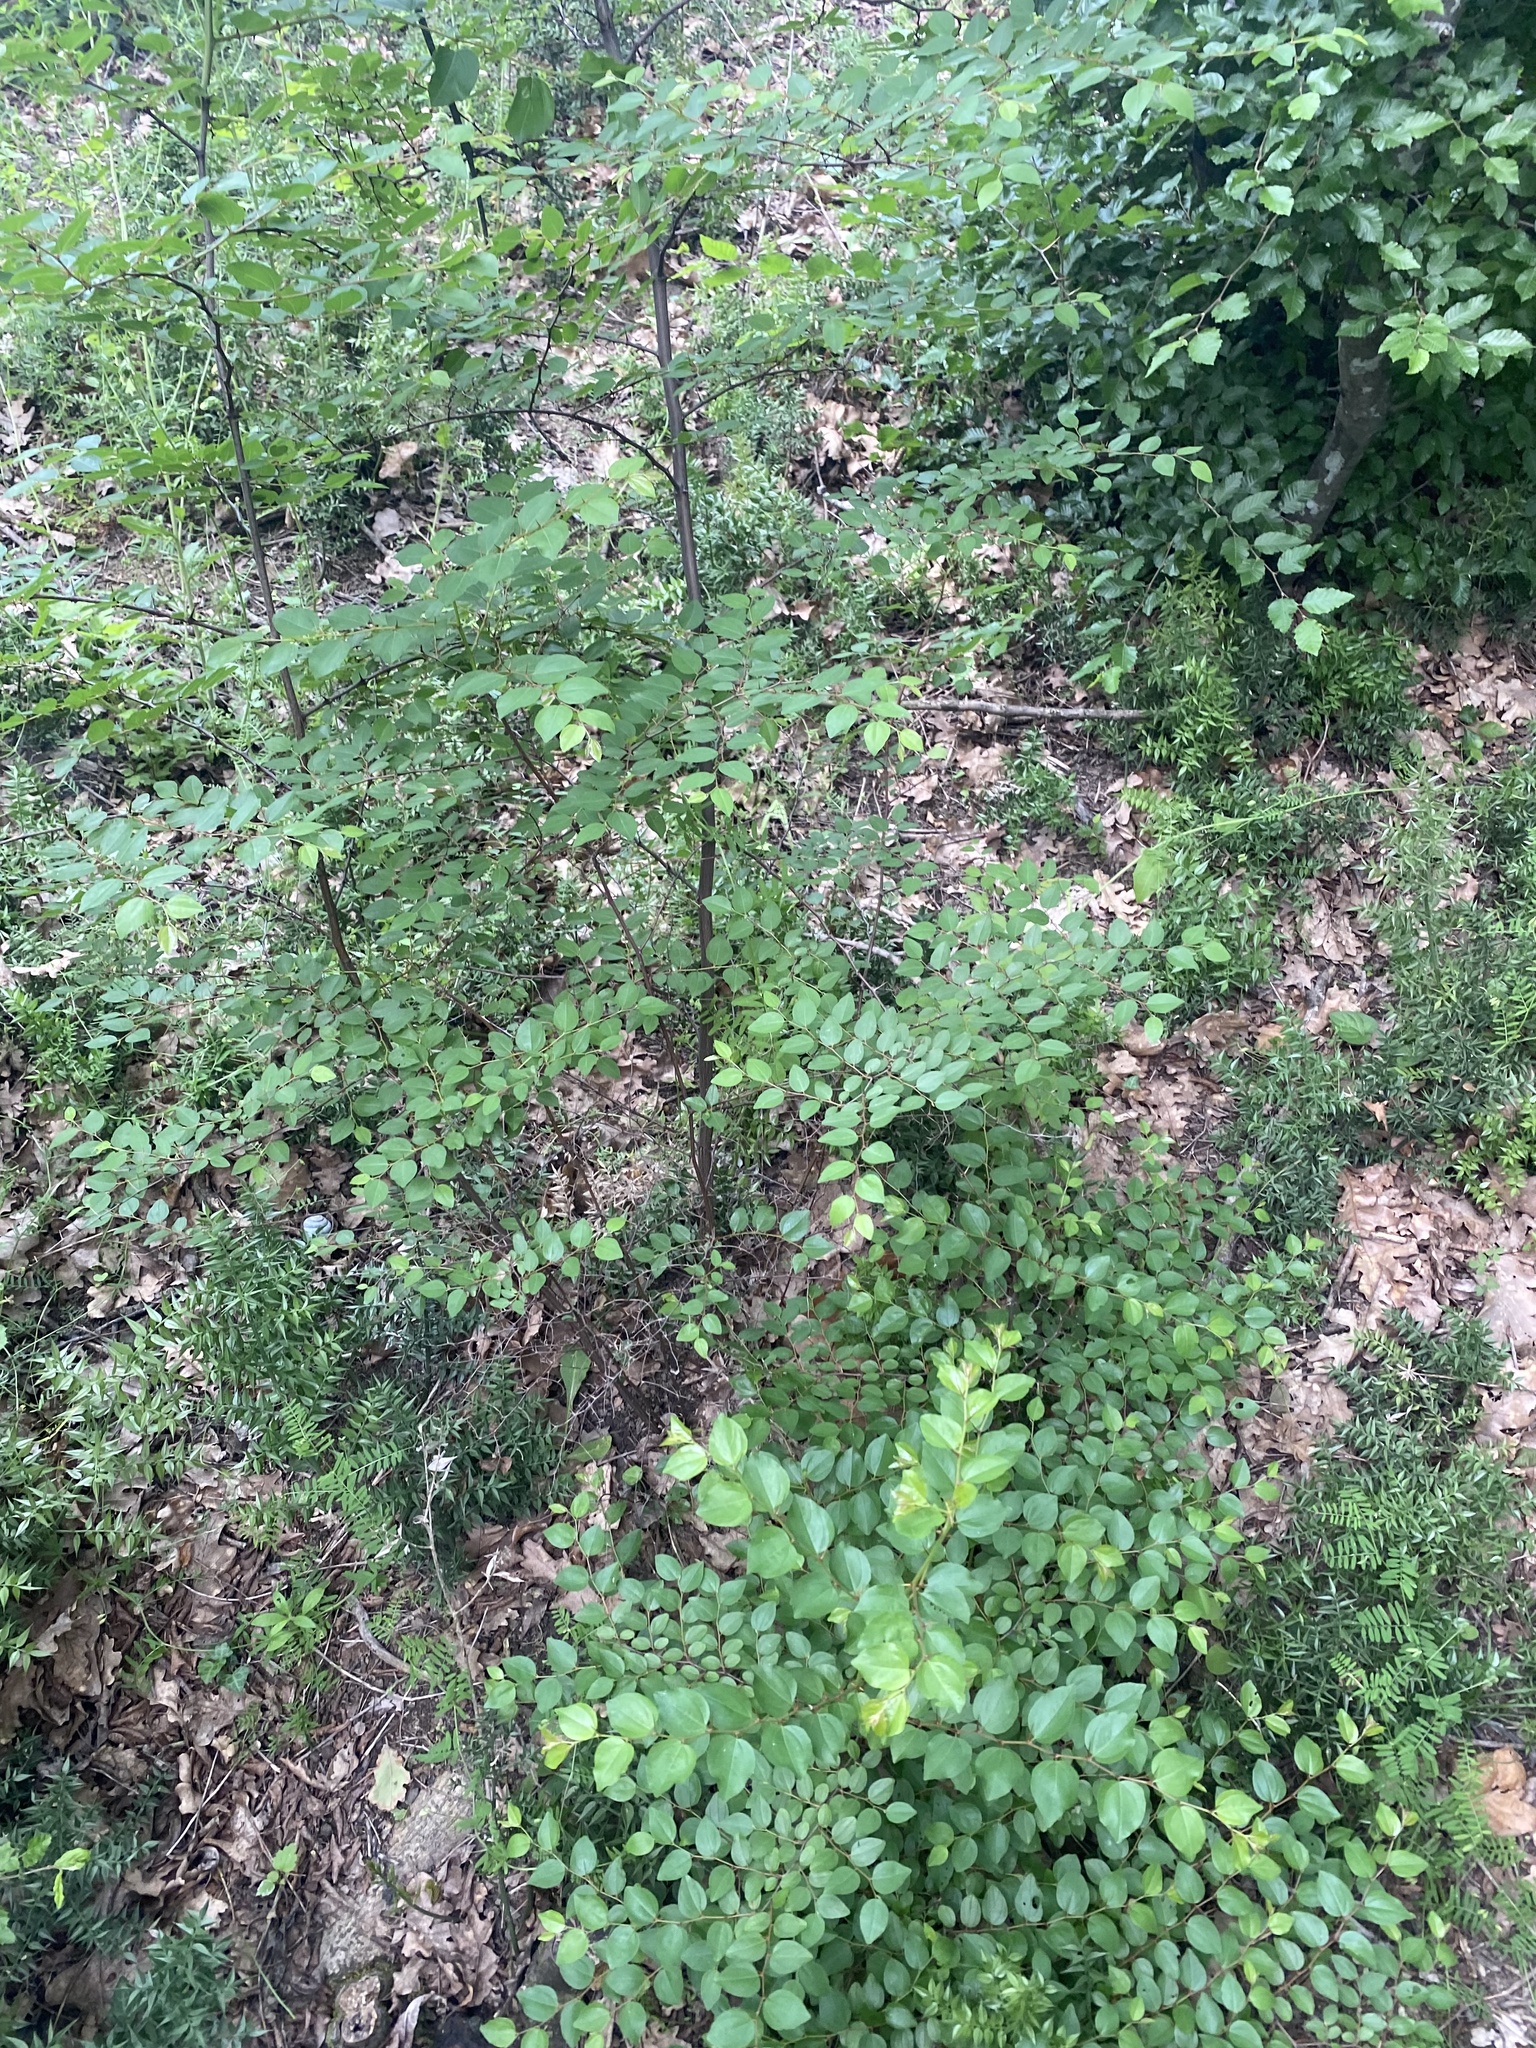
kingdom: Plantae
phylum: Tracheophyta
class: Magnoliopsida
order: Rosales
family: Rhamnaceae
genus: Paliurus
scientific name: Paliurus spina-christi
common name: Jeruselem thorn
